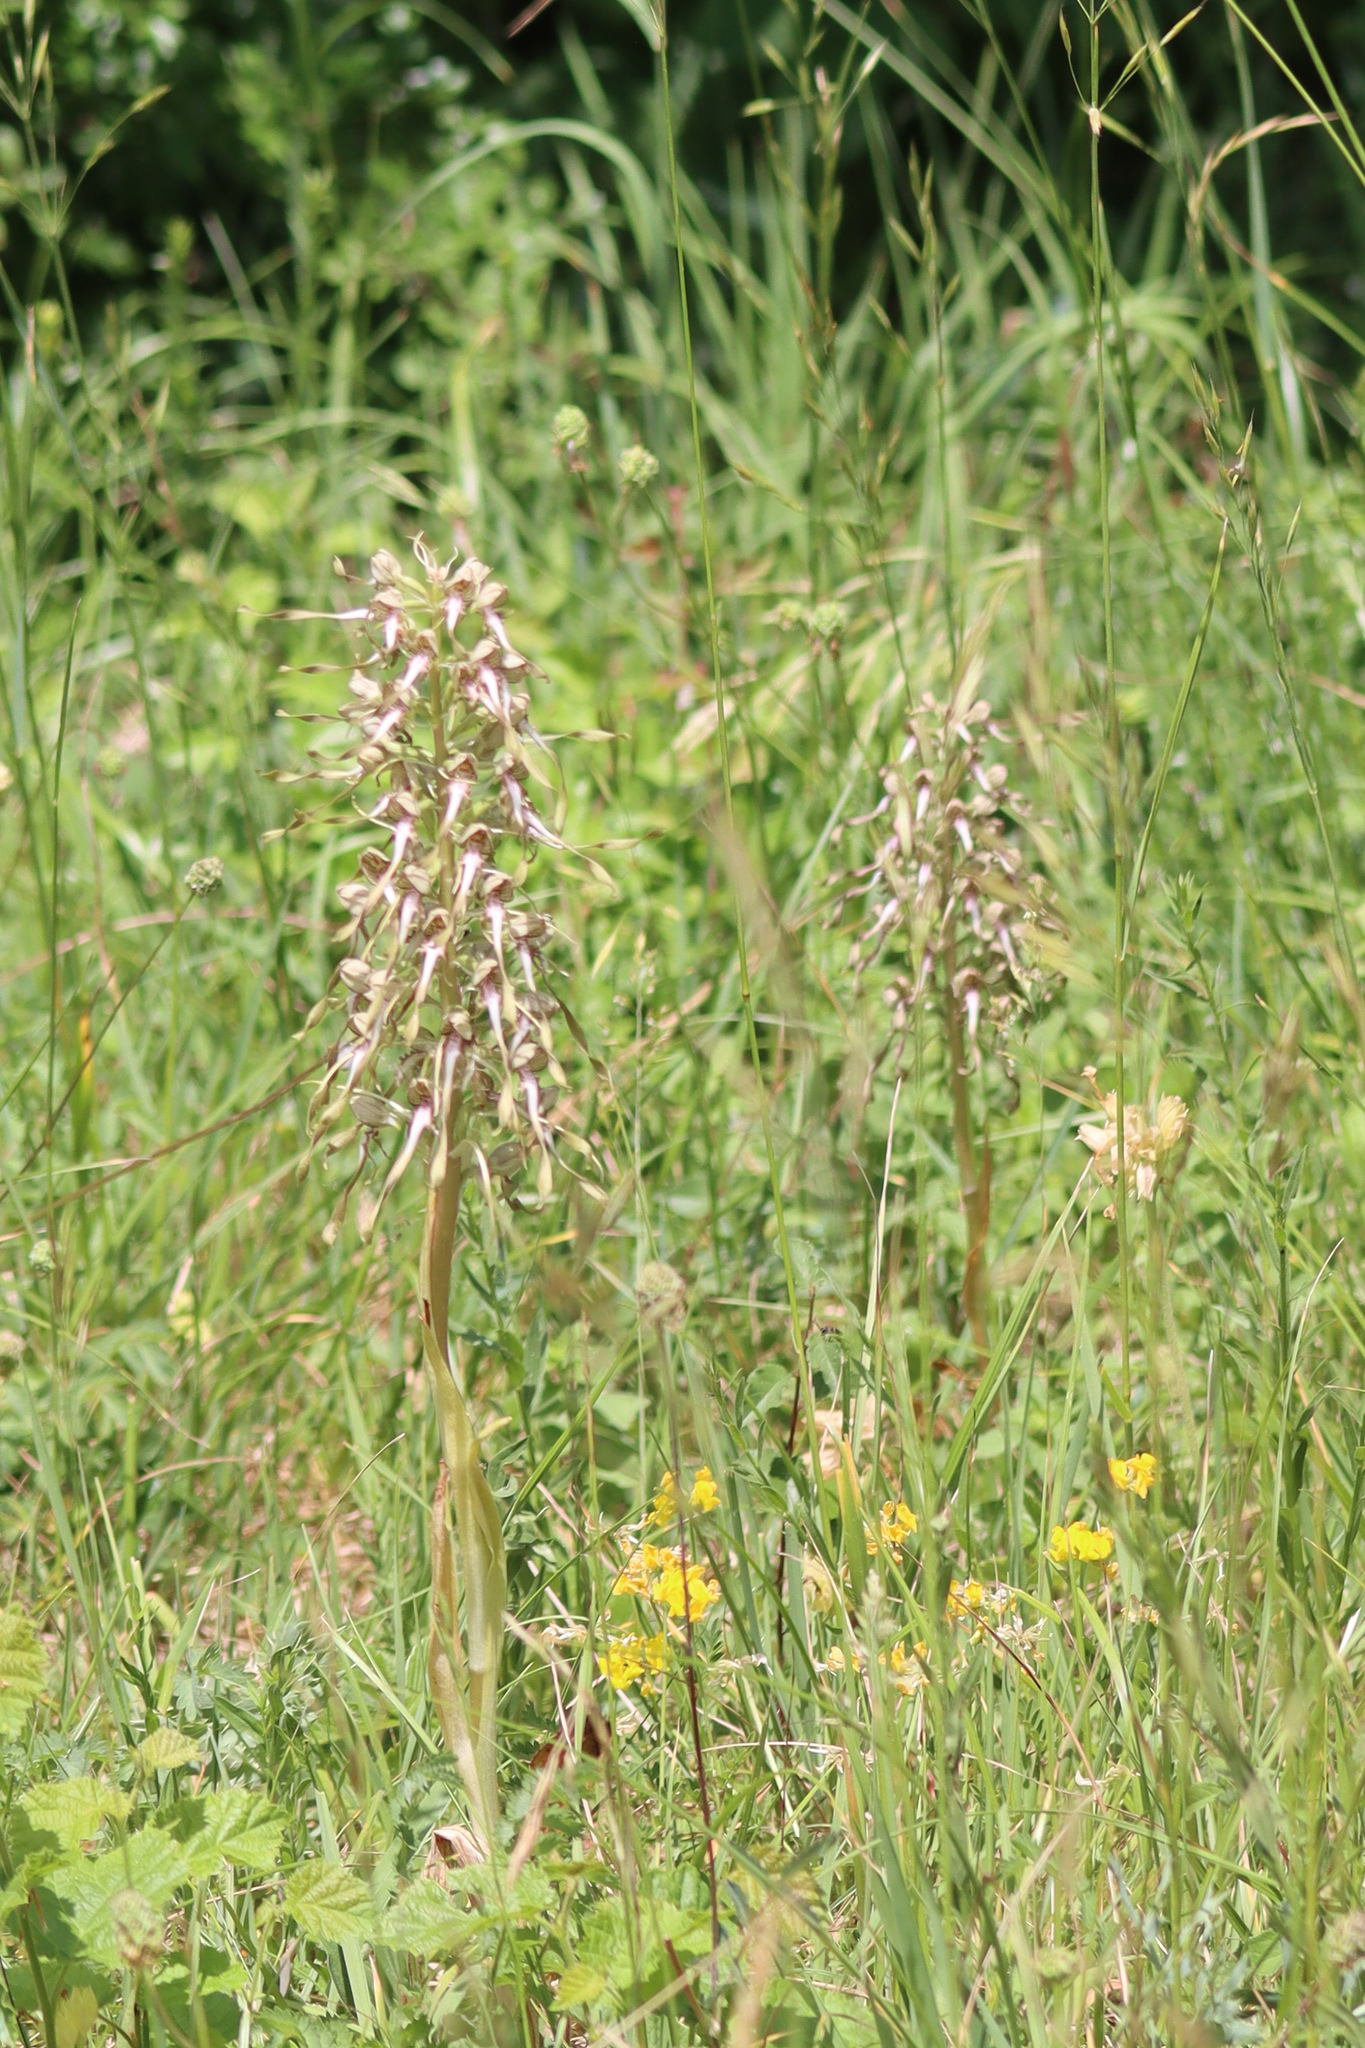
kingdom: Plantae
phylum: Tracheophyta
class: Liliopsida
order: Asparagales
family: Orchidaceae
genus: Himantoglossum
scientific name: Himantoglossum hircinum
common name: Lizard orchid
